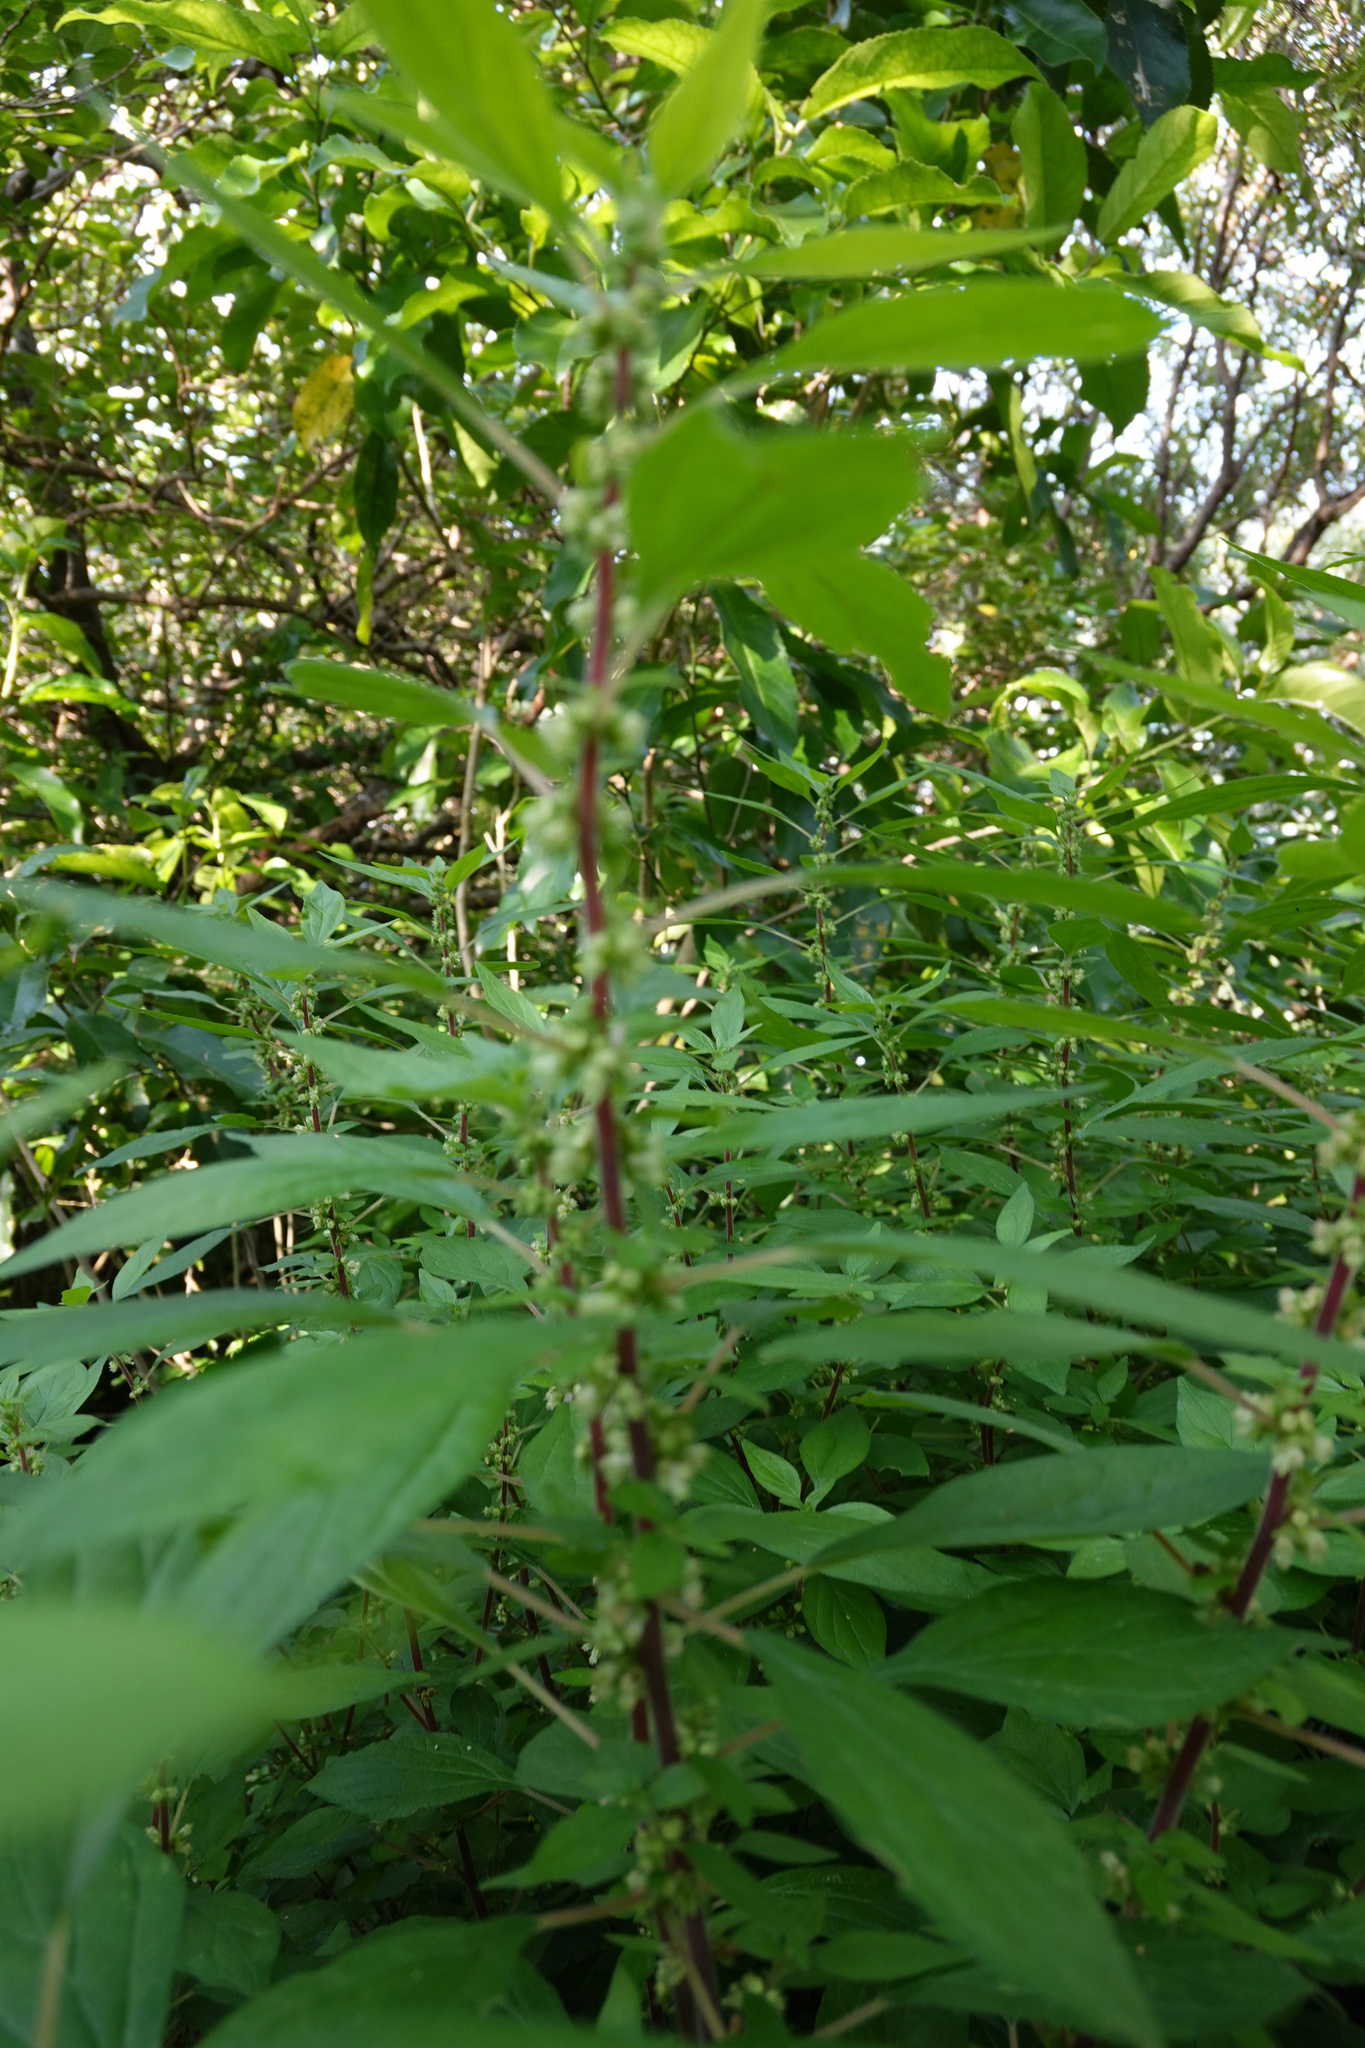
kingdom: Plantae
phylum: Tracheophyta
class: Magnoliopsida
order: Rosales
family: Urticaceae
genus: Parietaria
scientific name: Parietaria officinalis
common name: Eastern pellitory-of-the-wall
